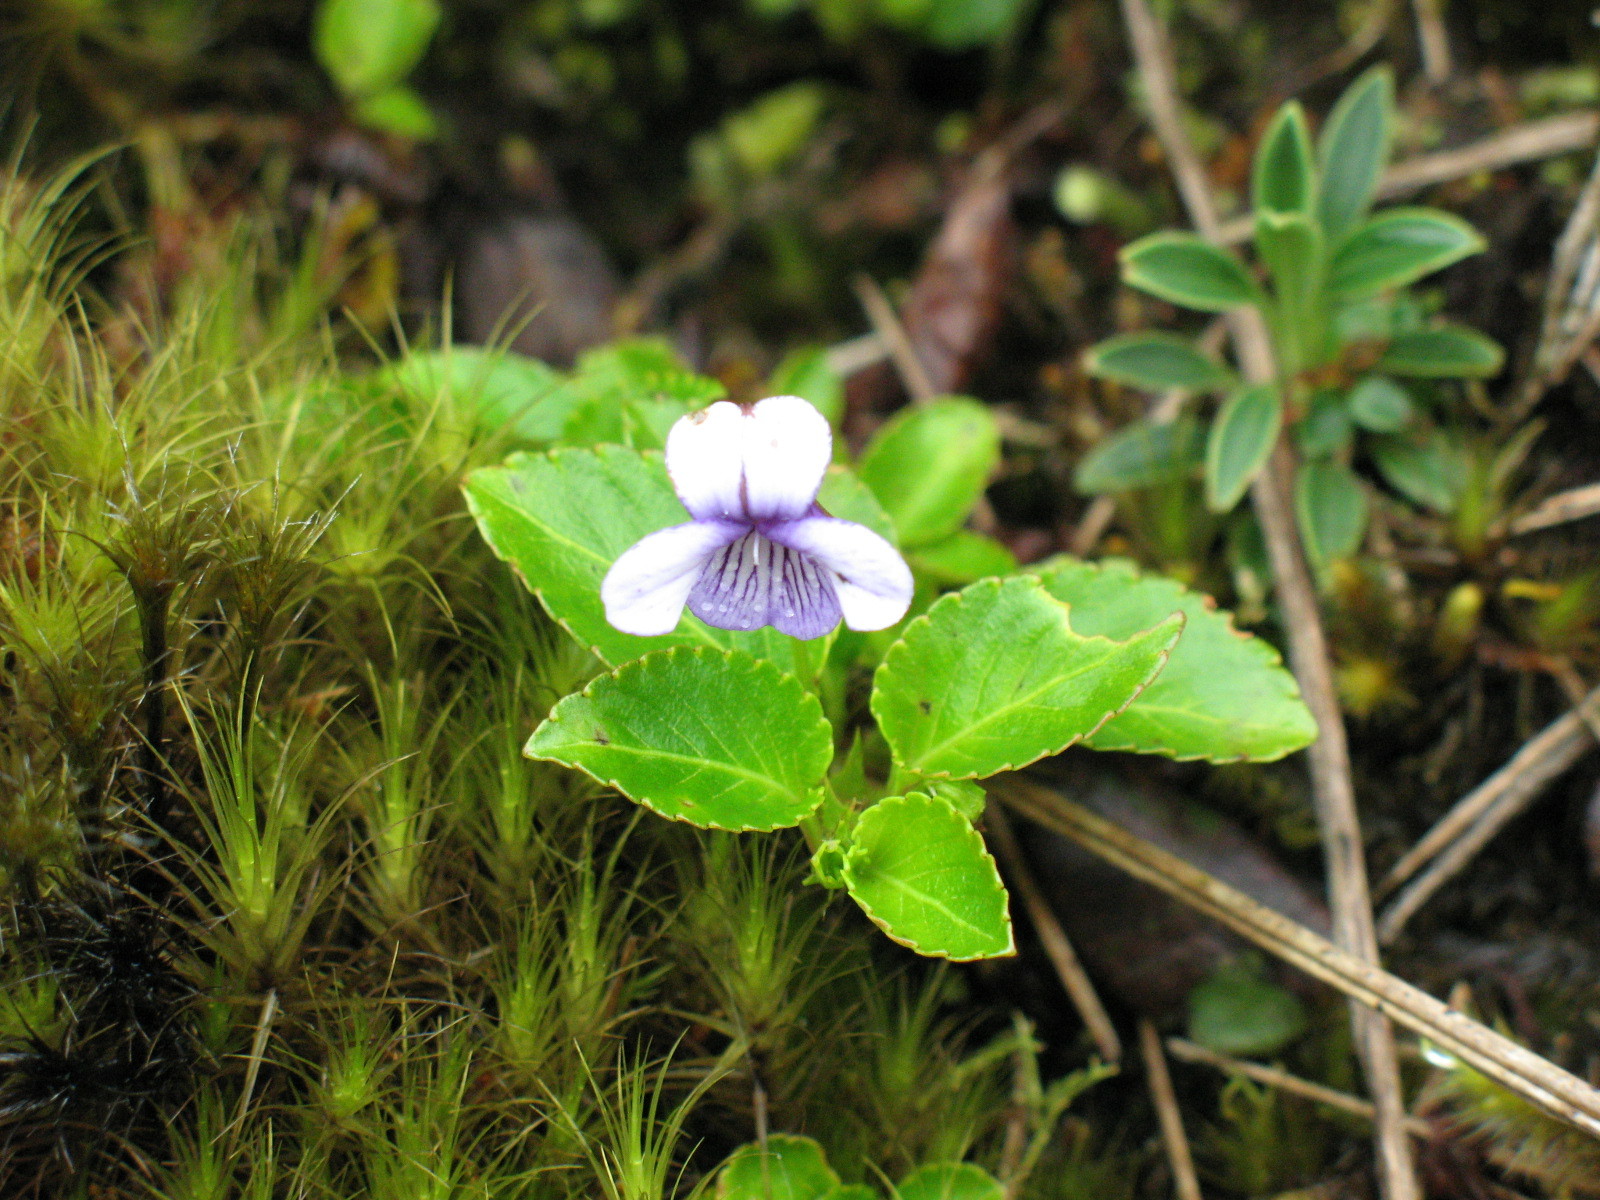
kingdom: Plantae
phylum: Tracheophyta
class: Magnoliopsida
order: Malpighiales
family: Violaceae
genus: Viola
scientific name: Viola stipularis
